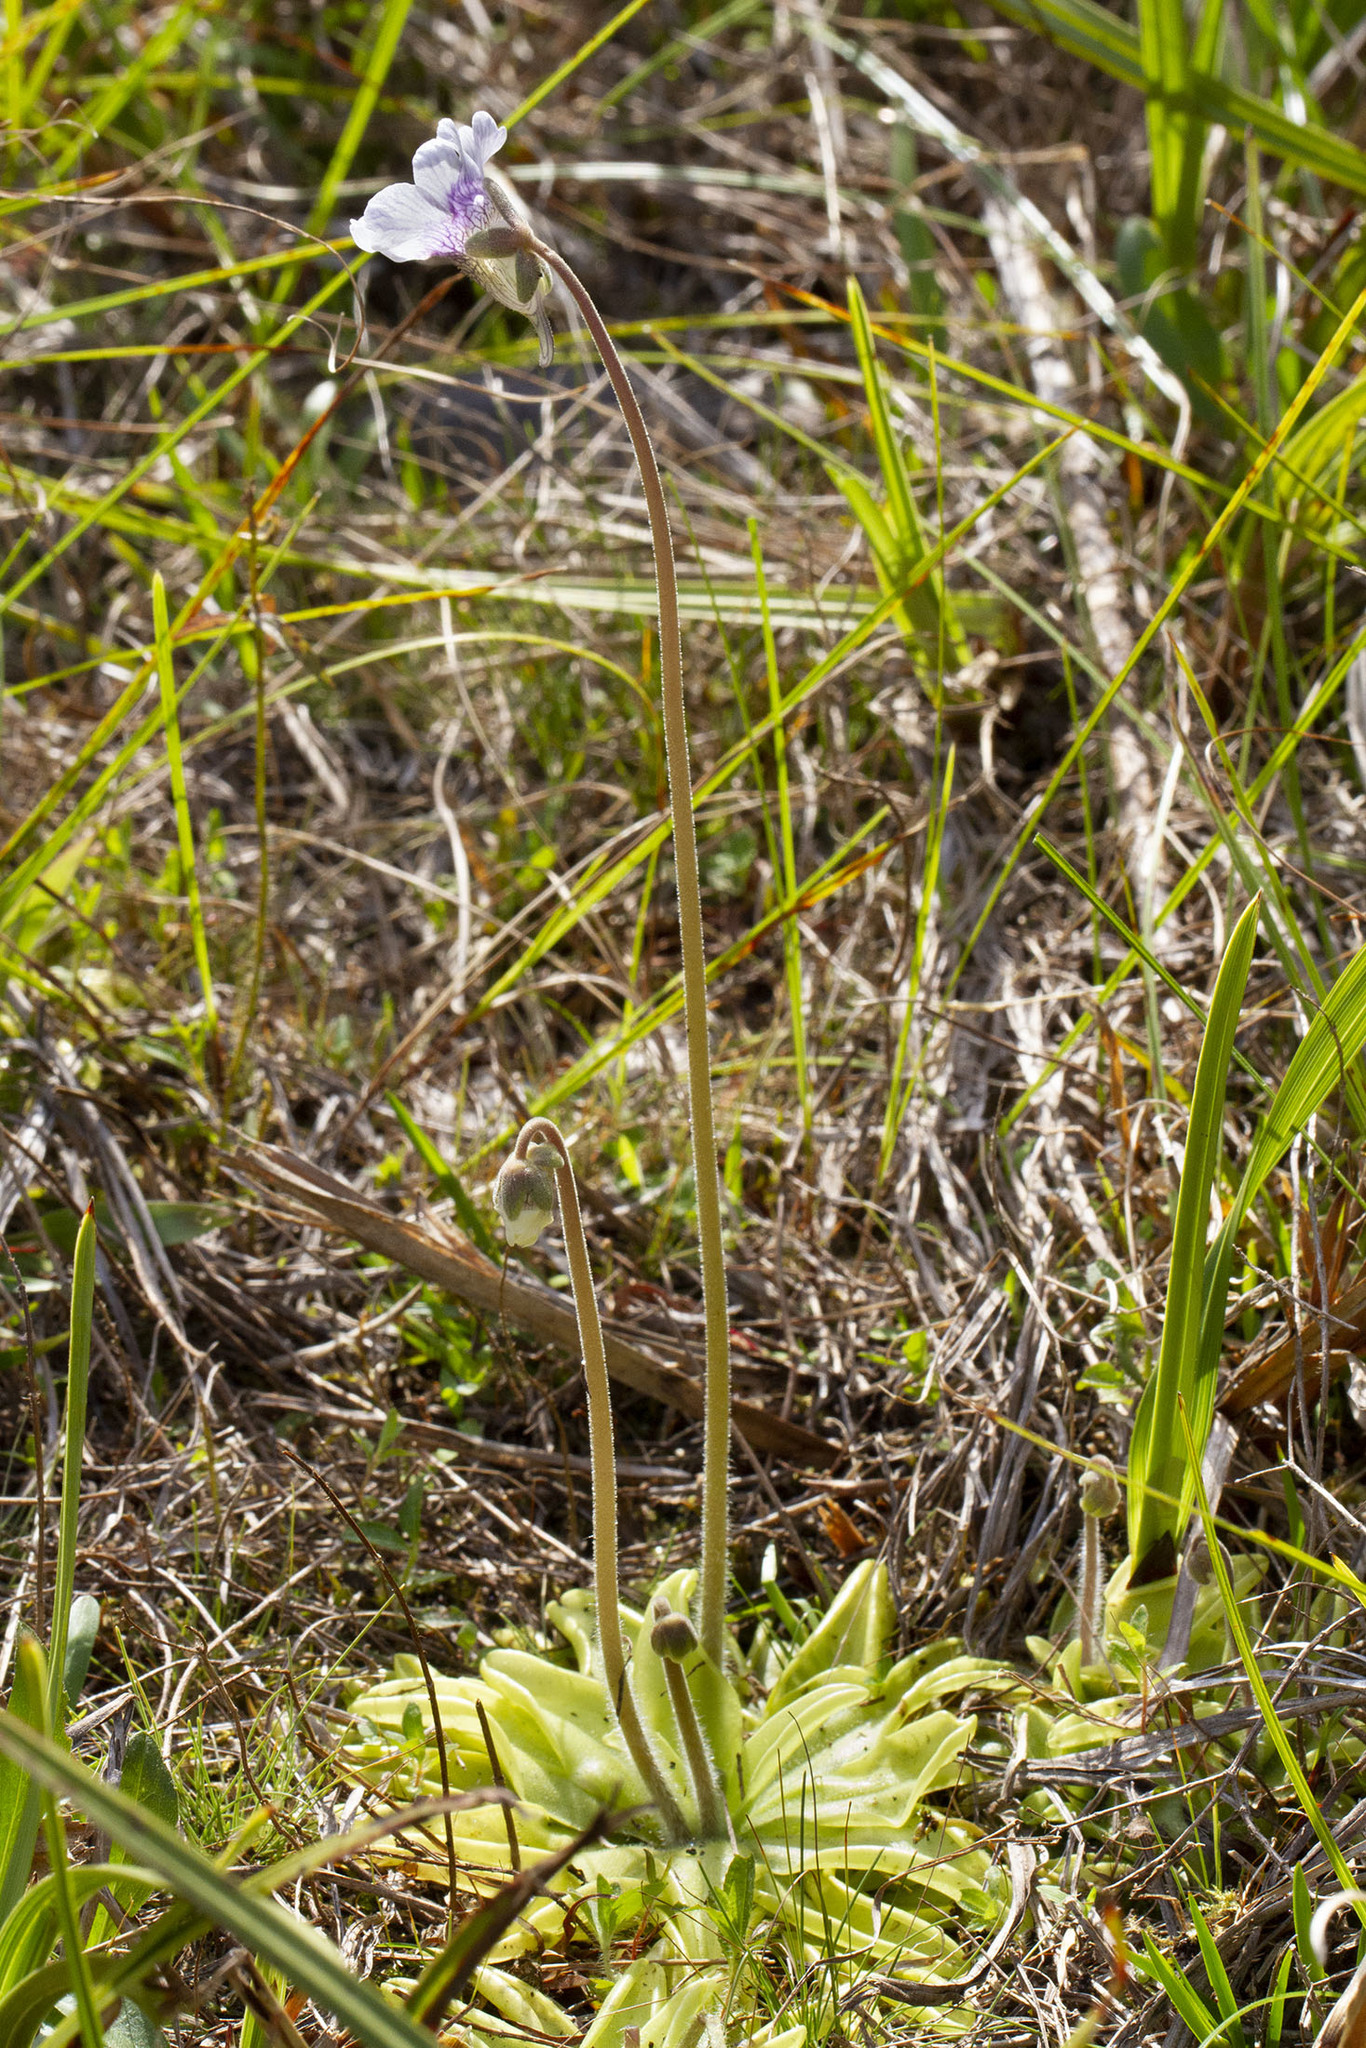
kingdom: Plantae
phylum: Tracheophyta
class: Magnoliopsida
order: Lamiales
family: Lentibulariaceae
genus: Pinguicula
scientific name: Pinguicula caerulea
